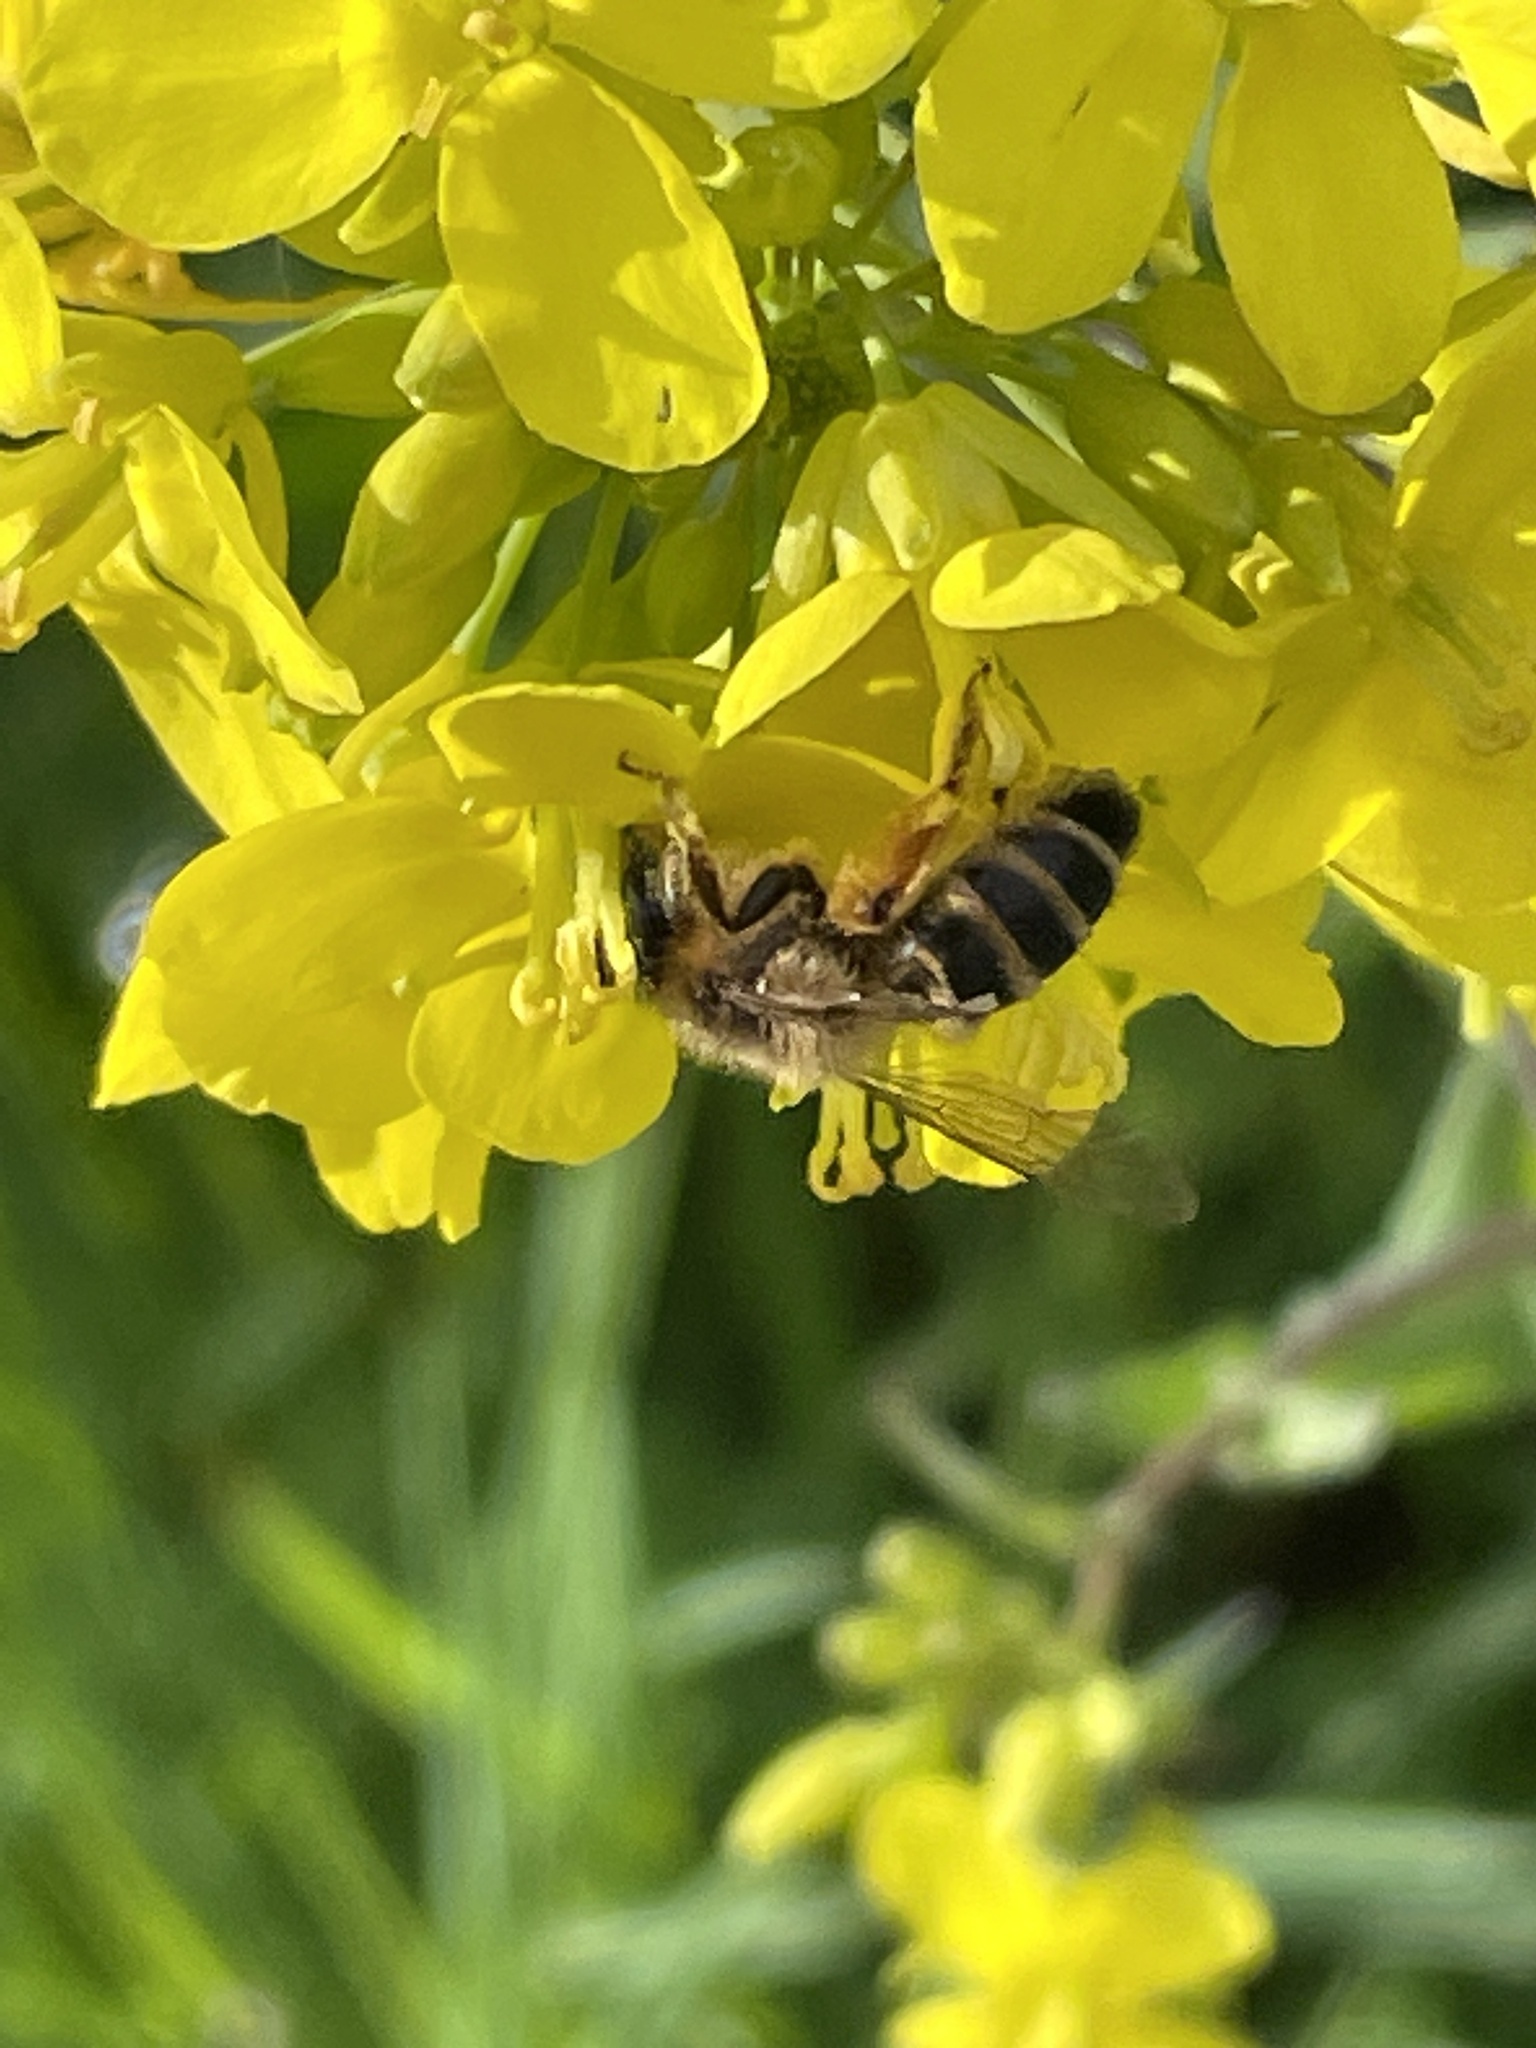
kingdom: Animalia
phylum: Arthropoda
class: Insecta
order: Hymenoptera
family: Andrenidae
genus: Andrena
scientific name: Andrena flavipes
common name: Yellow-legged mining bee
